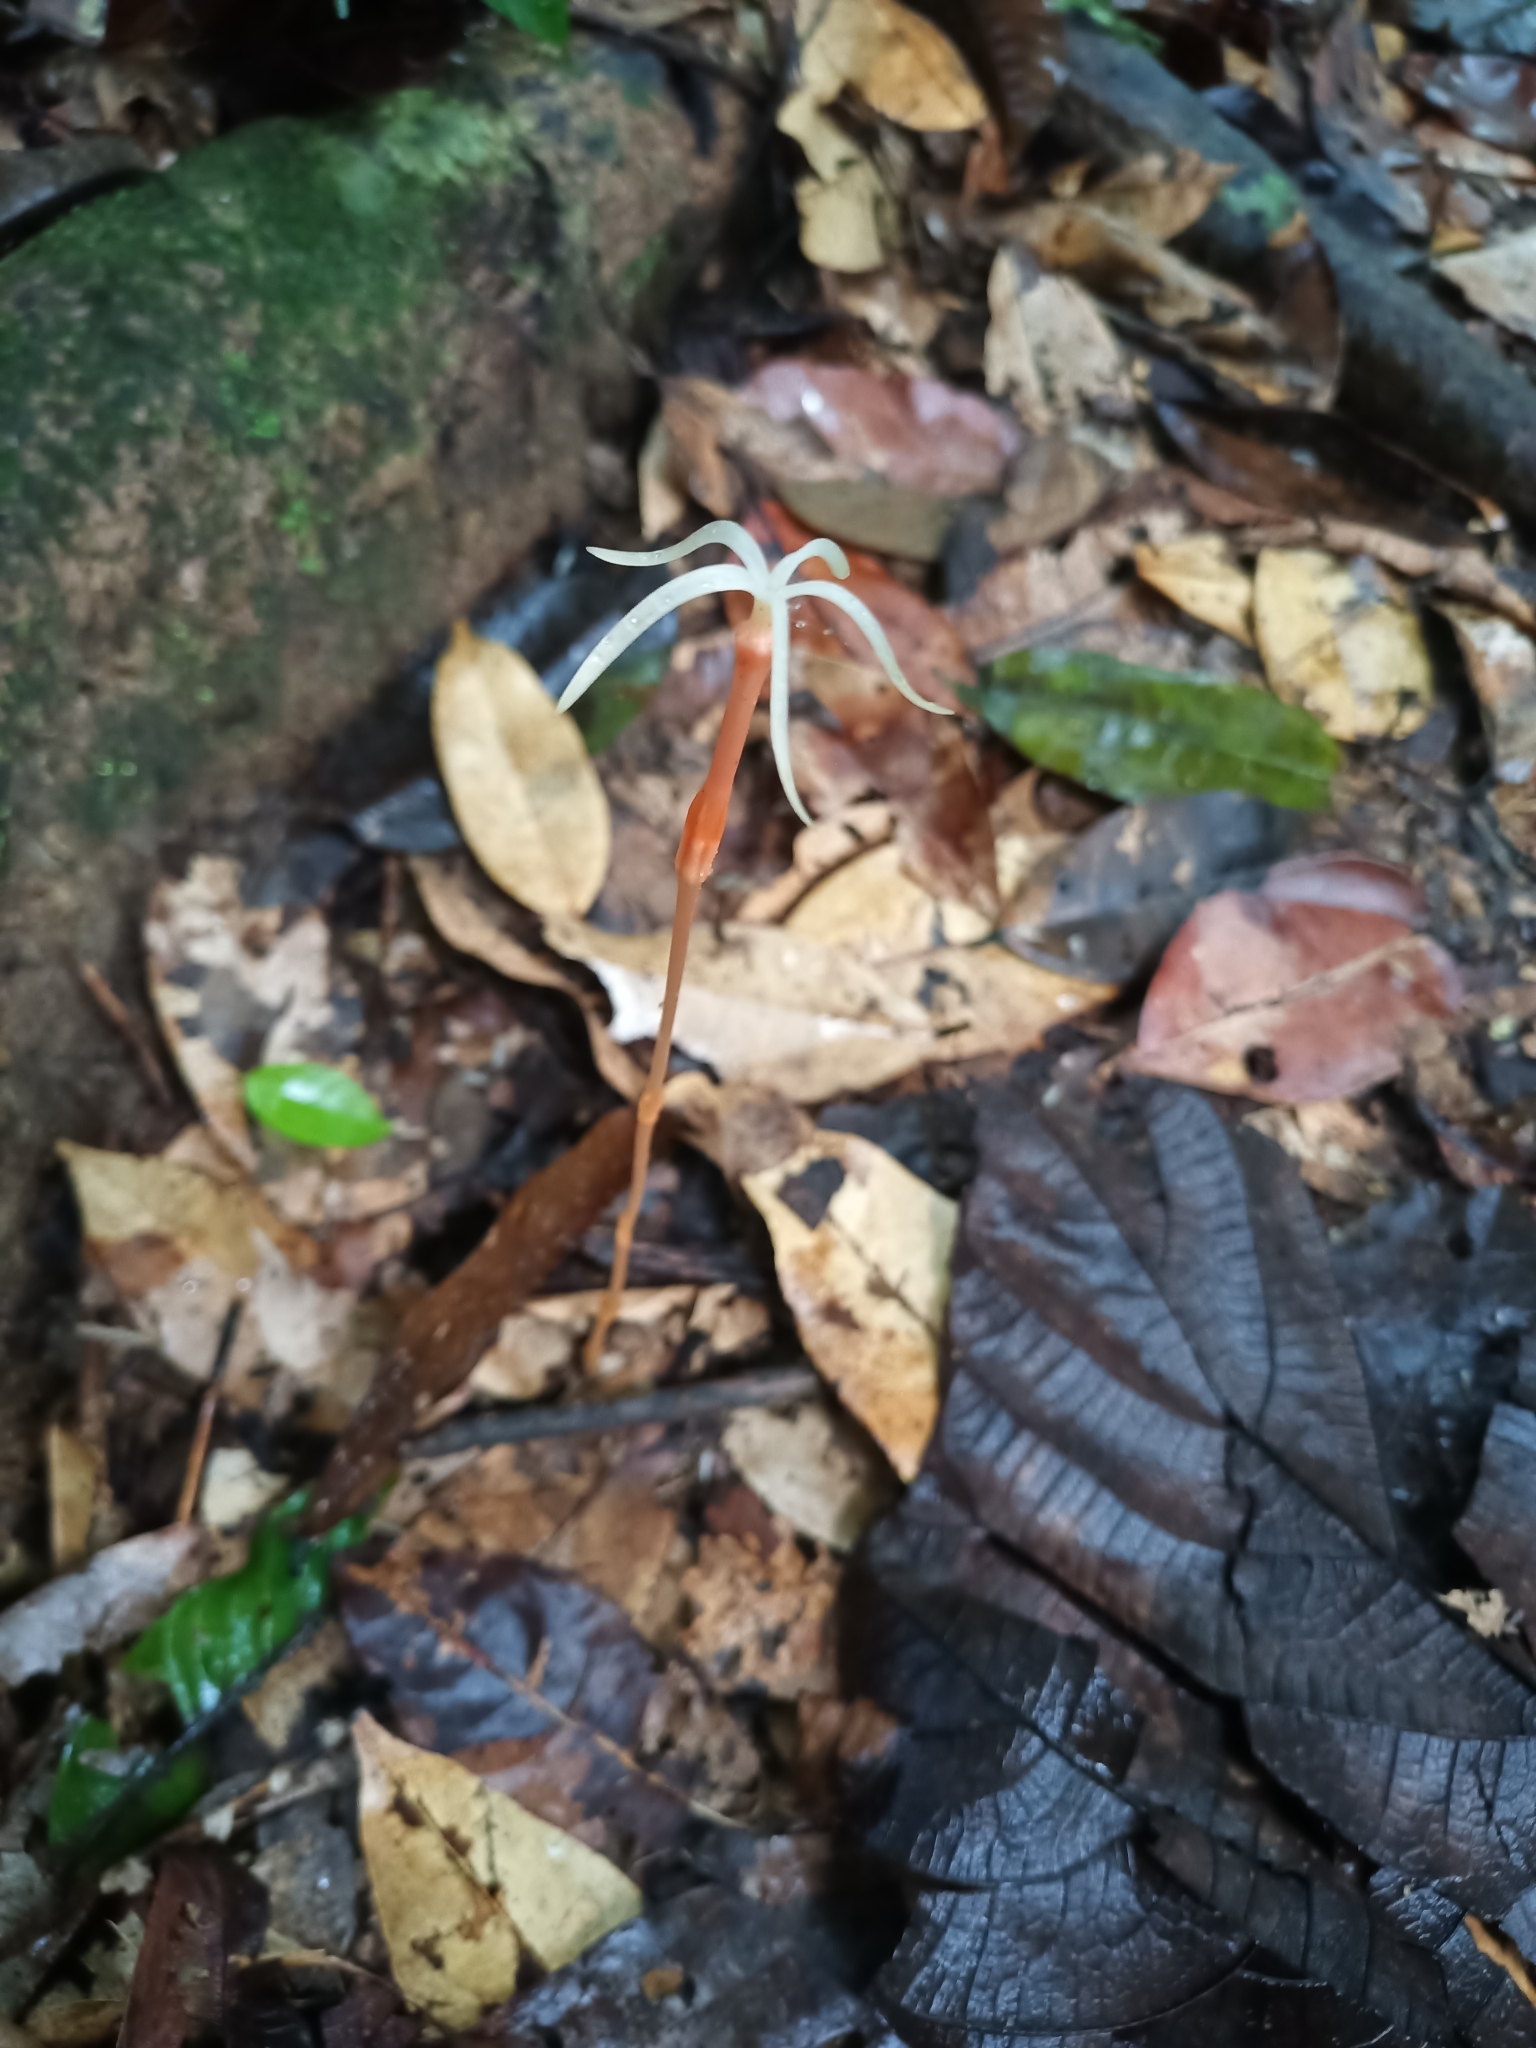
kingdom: Plantae
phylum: Tracheophyta
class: Magnoliopsida
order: Gentianales
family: Gentianaceae
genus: Voyria
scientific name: Voyria tenuiflora
